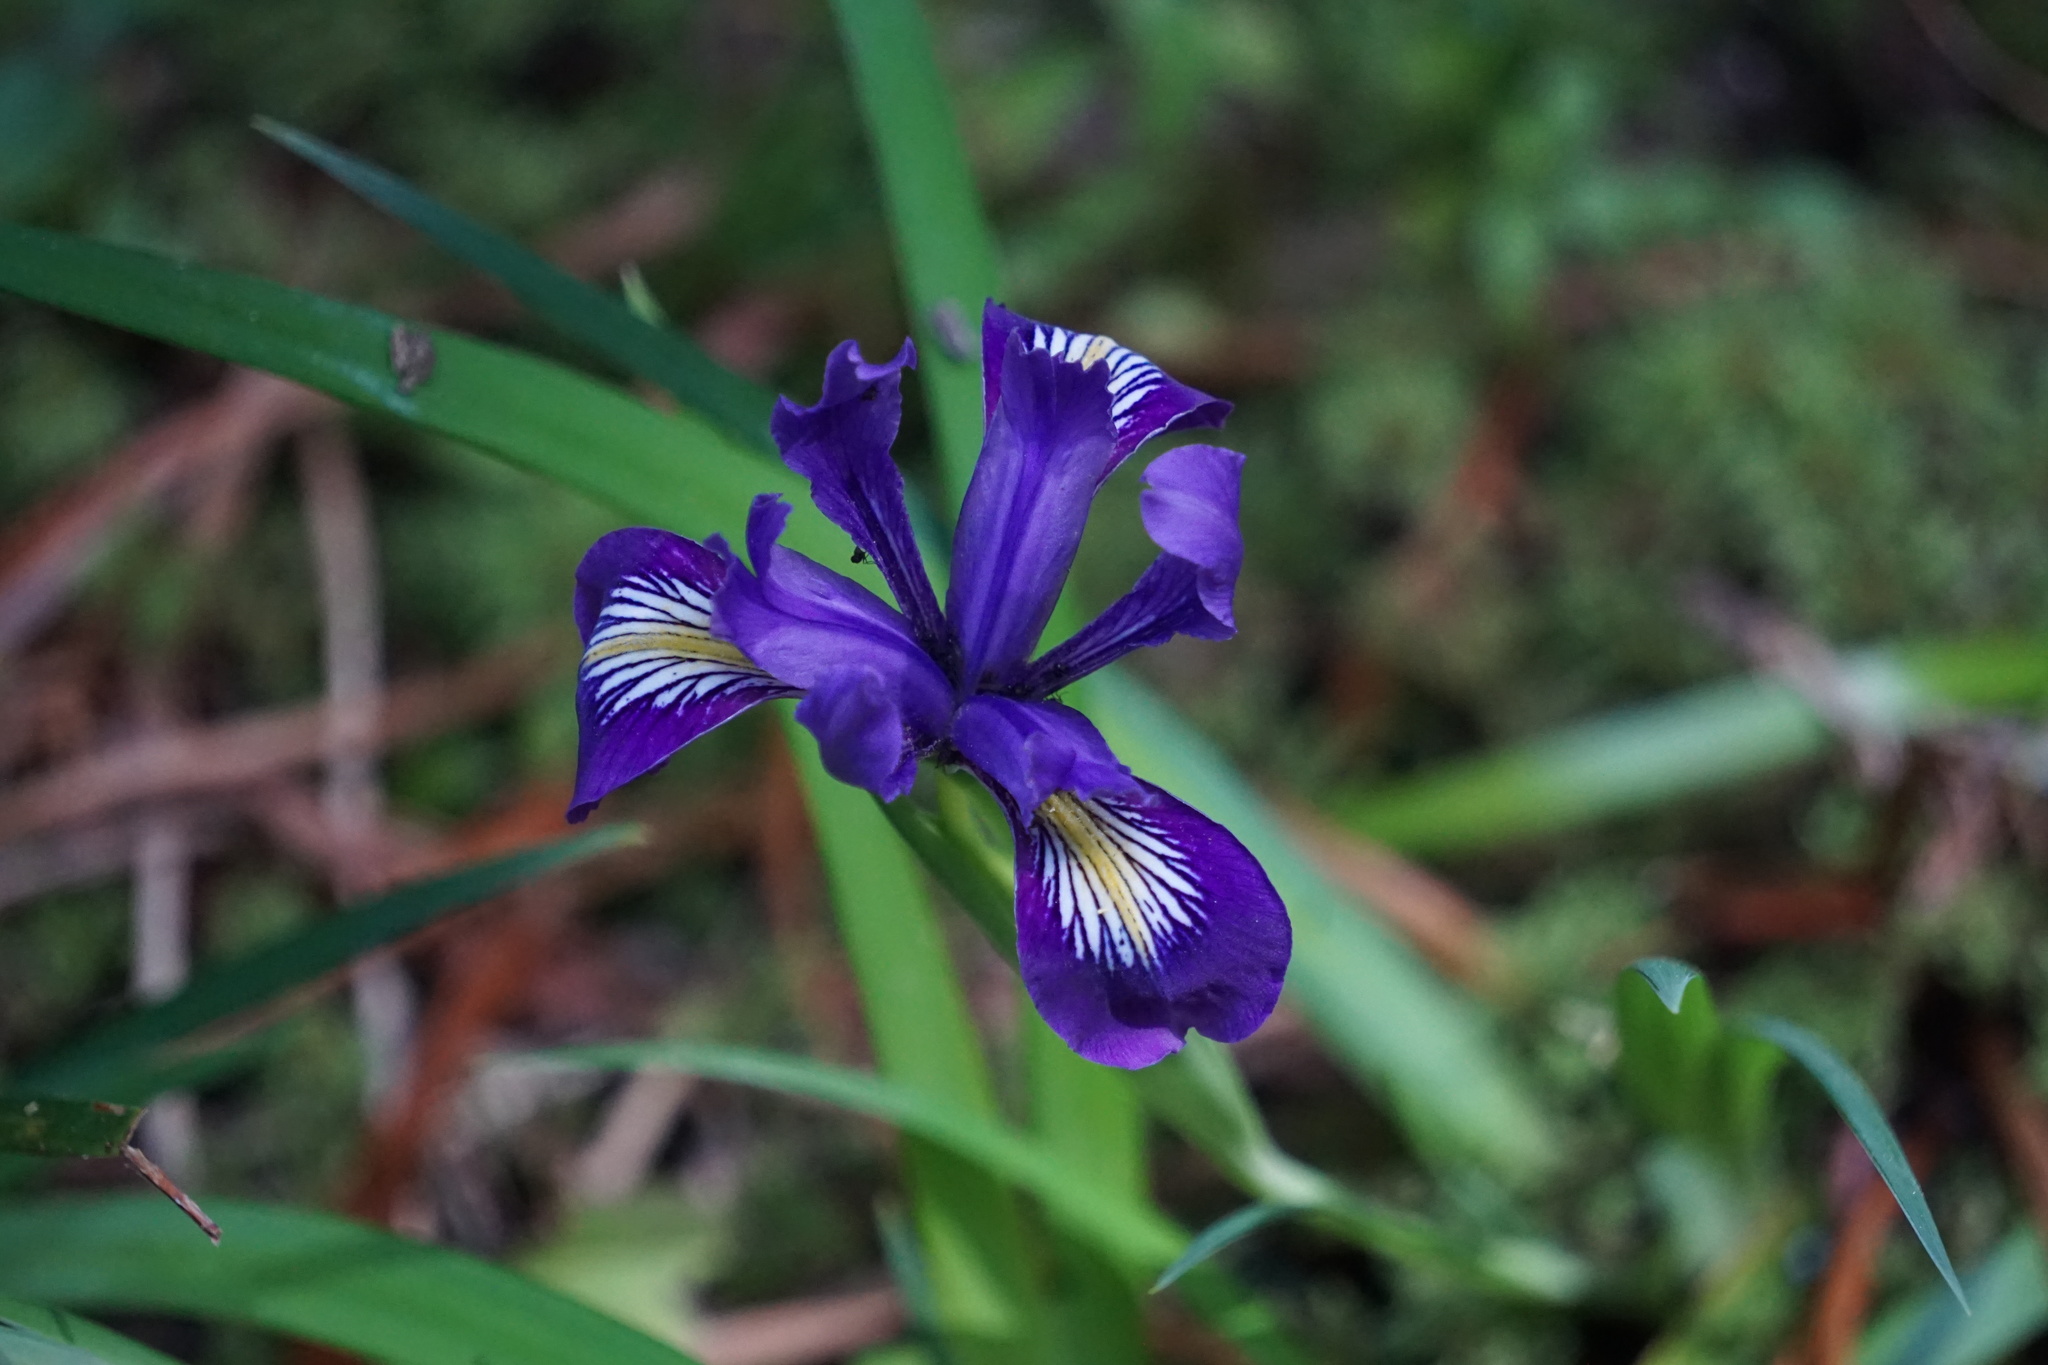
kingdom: Plantae
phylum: Tracheophyta
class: Liliopsida
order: Asparagales
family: Iridaceae
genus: Iris
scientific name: Iris douglasiana
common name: Marin iris
